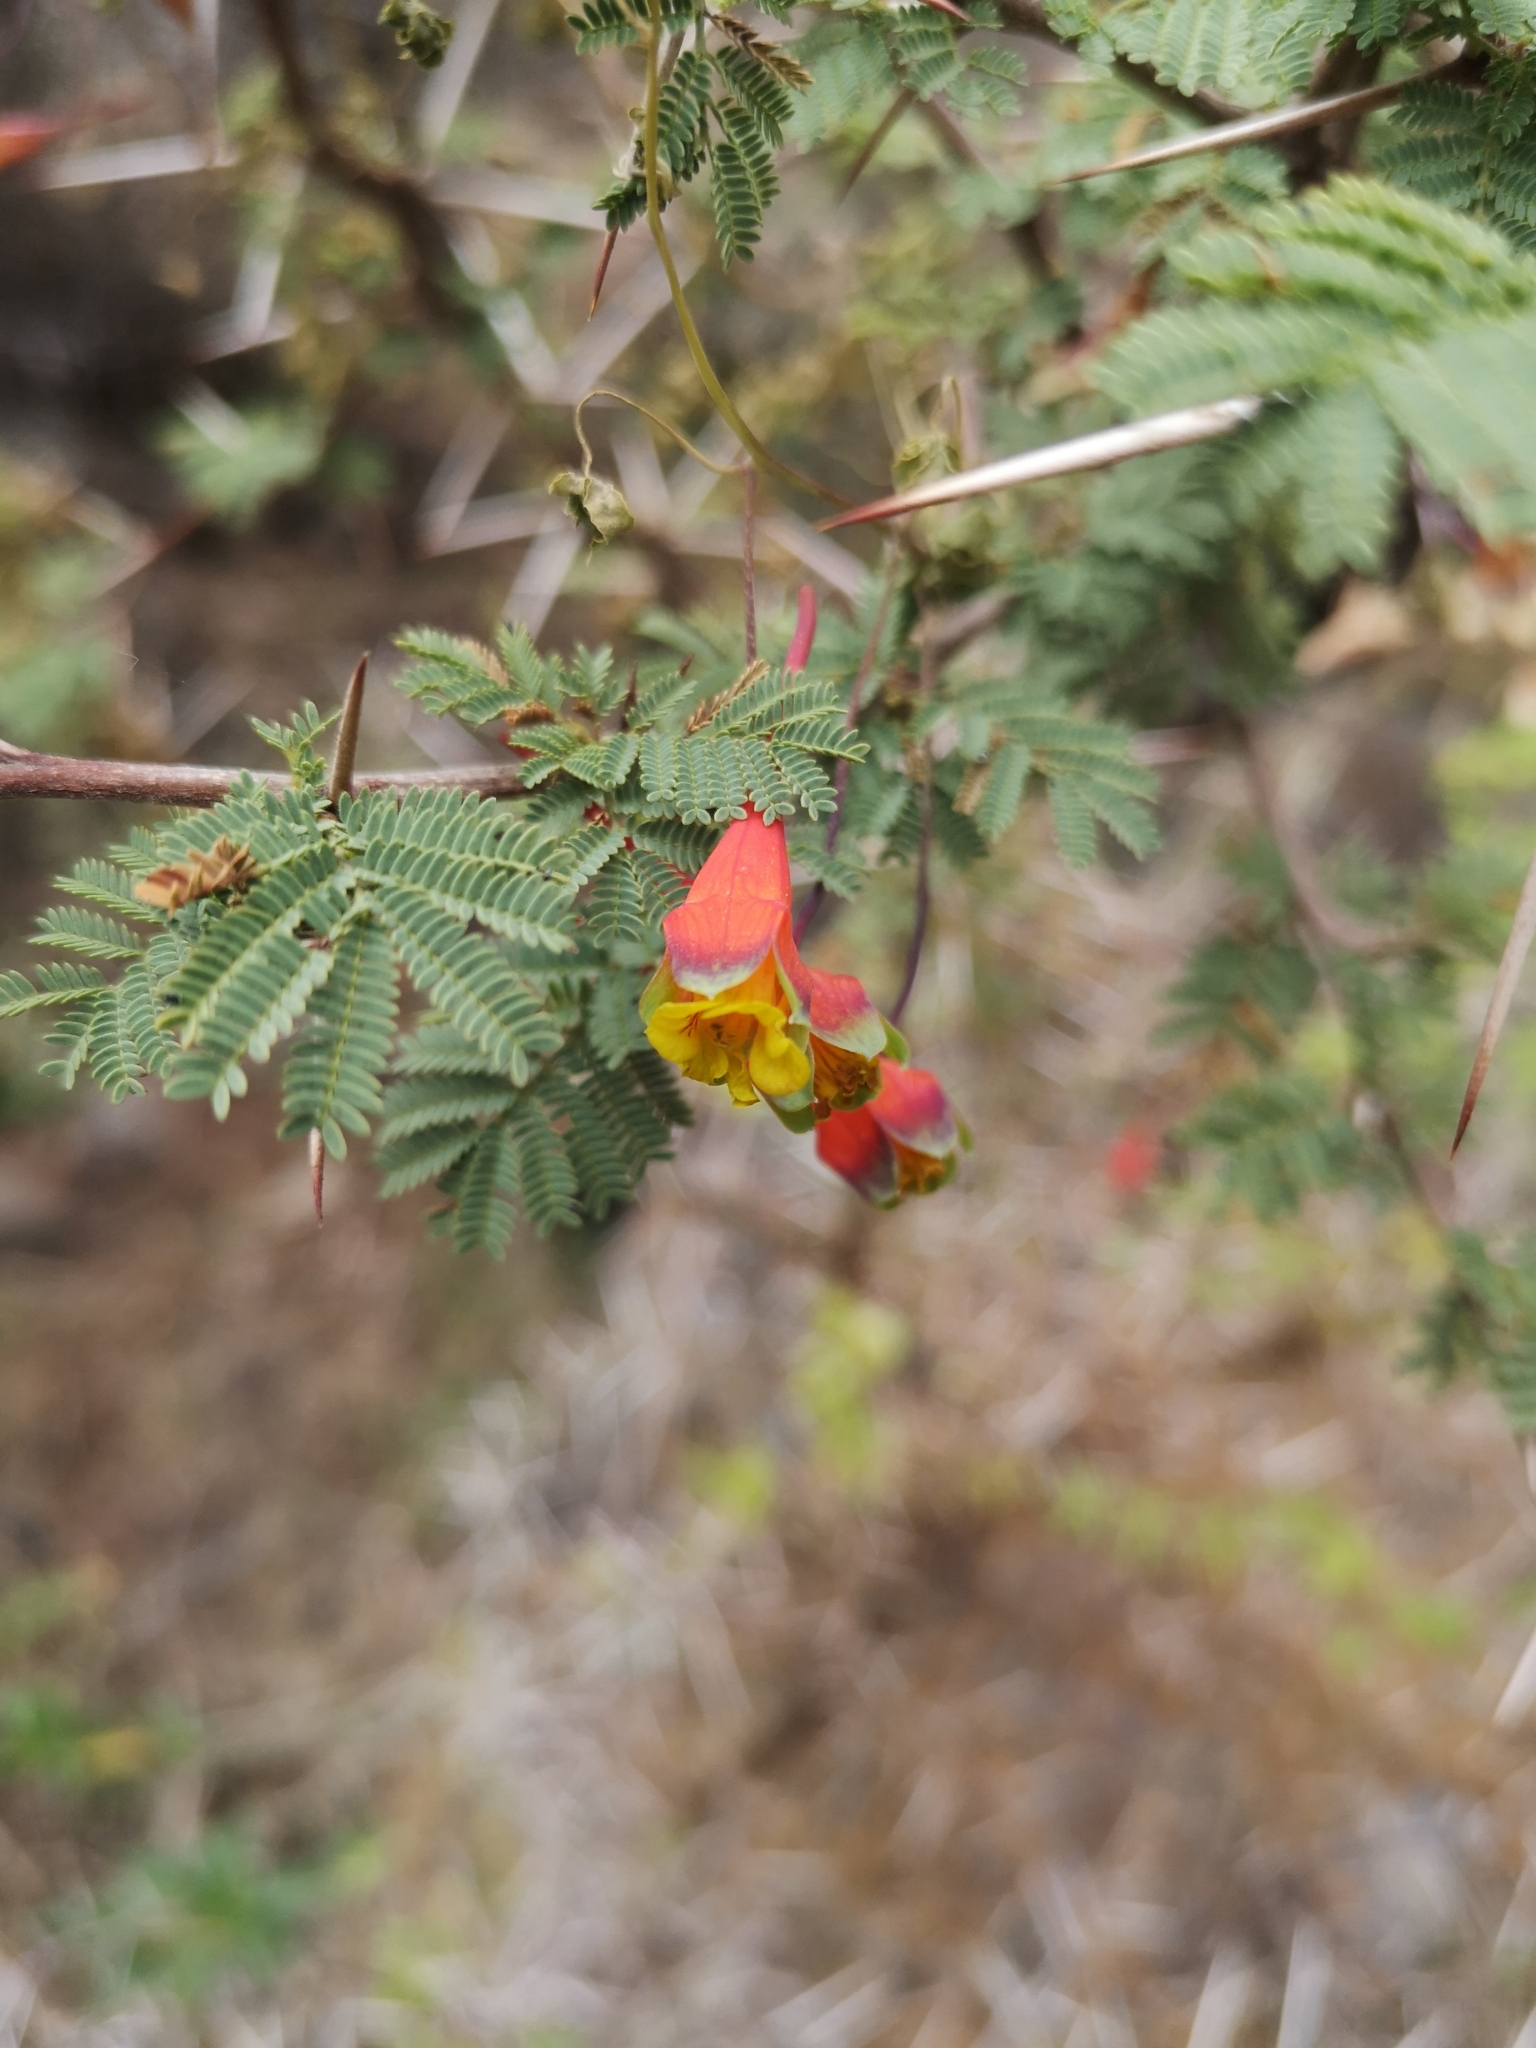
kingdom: Plantae
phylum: Tracheophyta
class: Magnoliopsida
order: Brassicales
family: Tropaeolaceae
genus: Tropaeolum
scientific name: Tropaeolum tricolor
